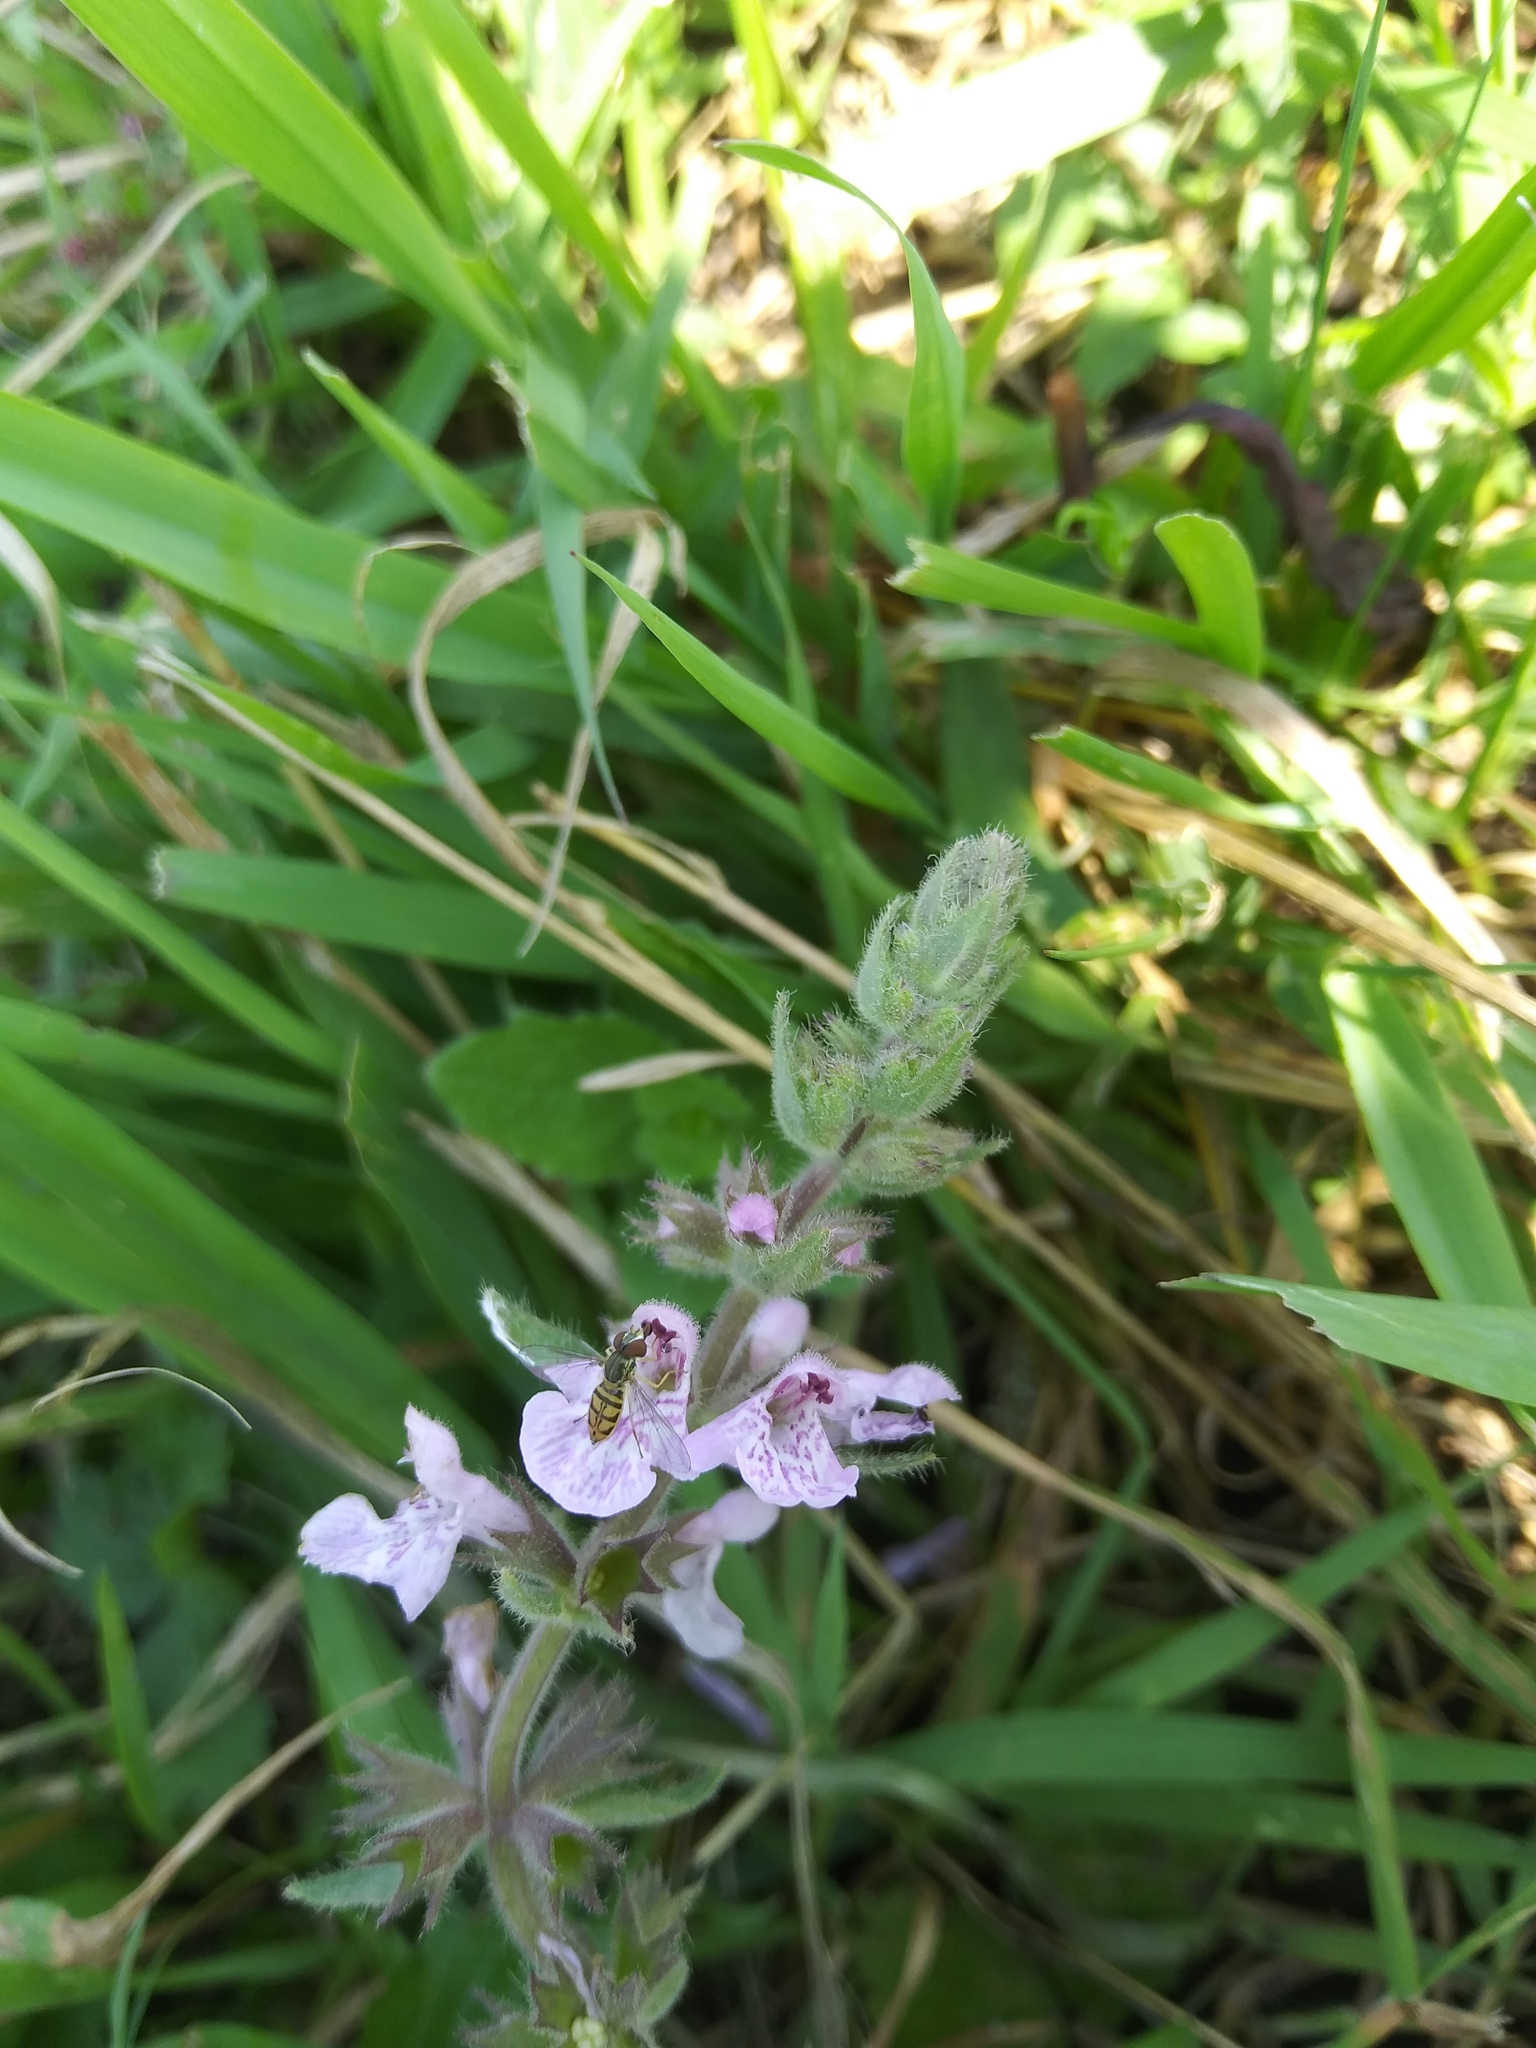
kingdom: Animalia
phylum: Arthropoda
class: Insecta
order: Diptera
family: Syrphidae
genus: Toxomerus
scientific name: Toxomerus marginatus
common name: Syrphid fly
